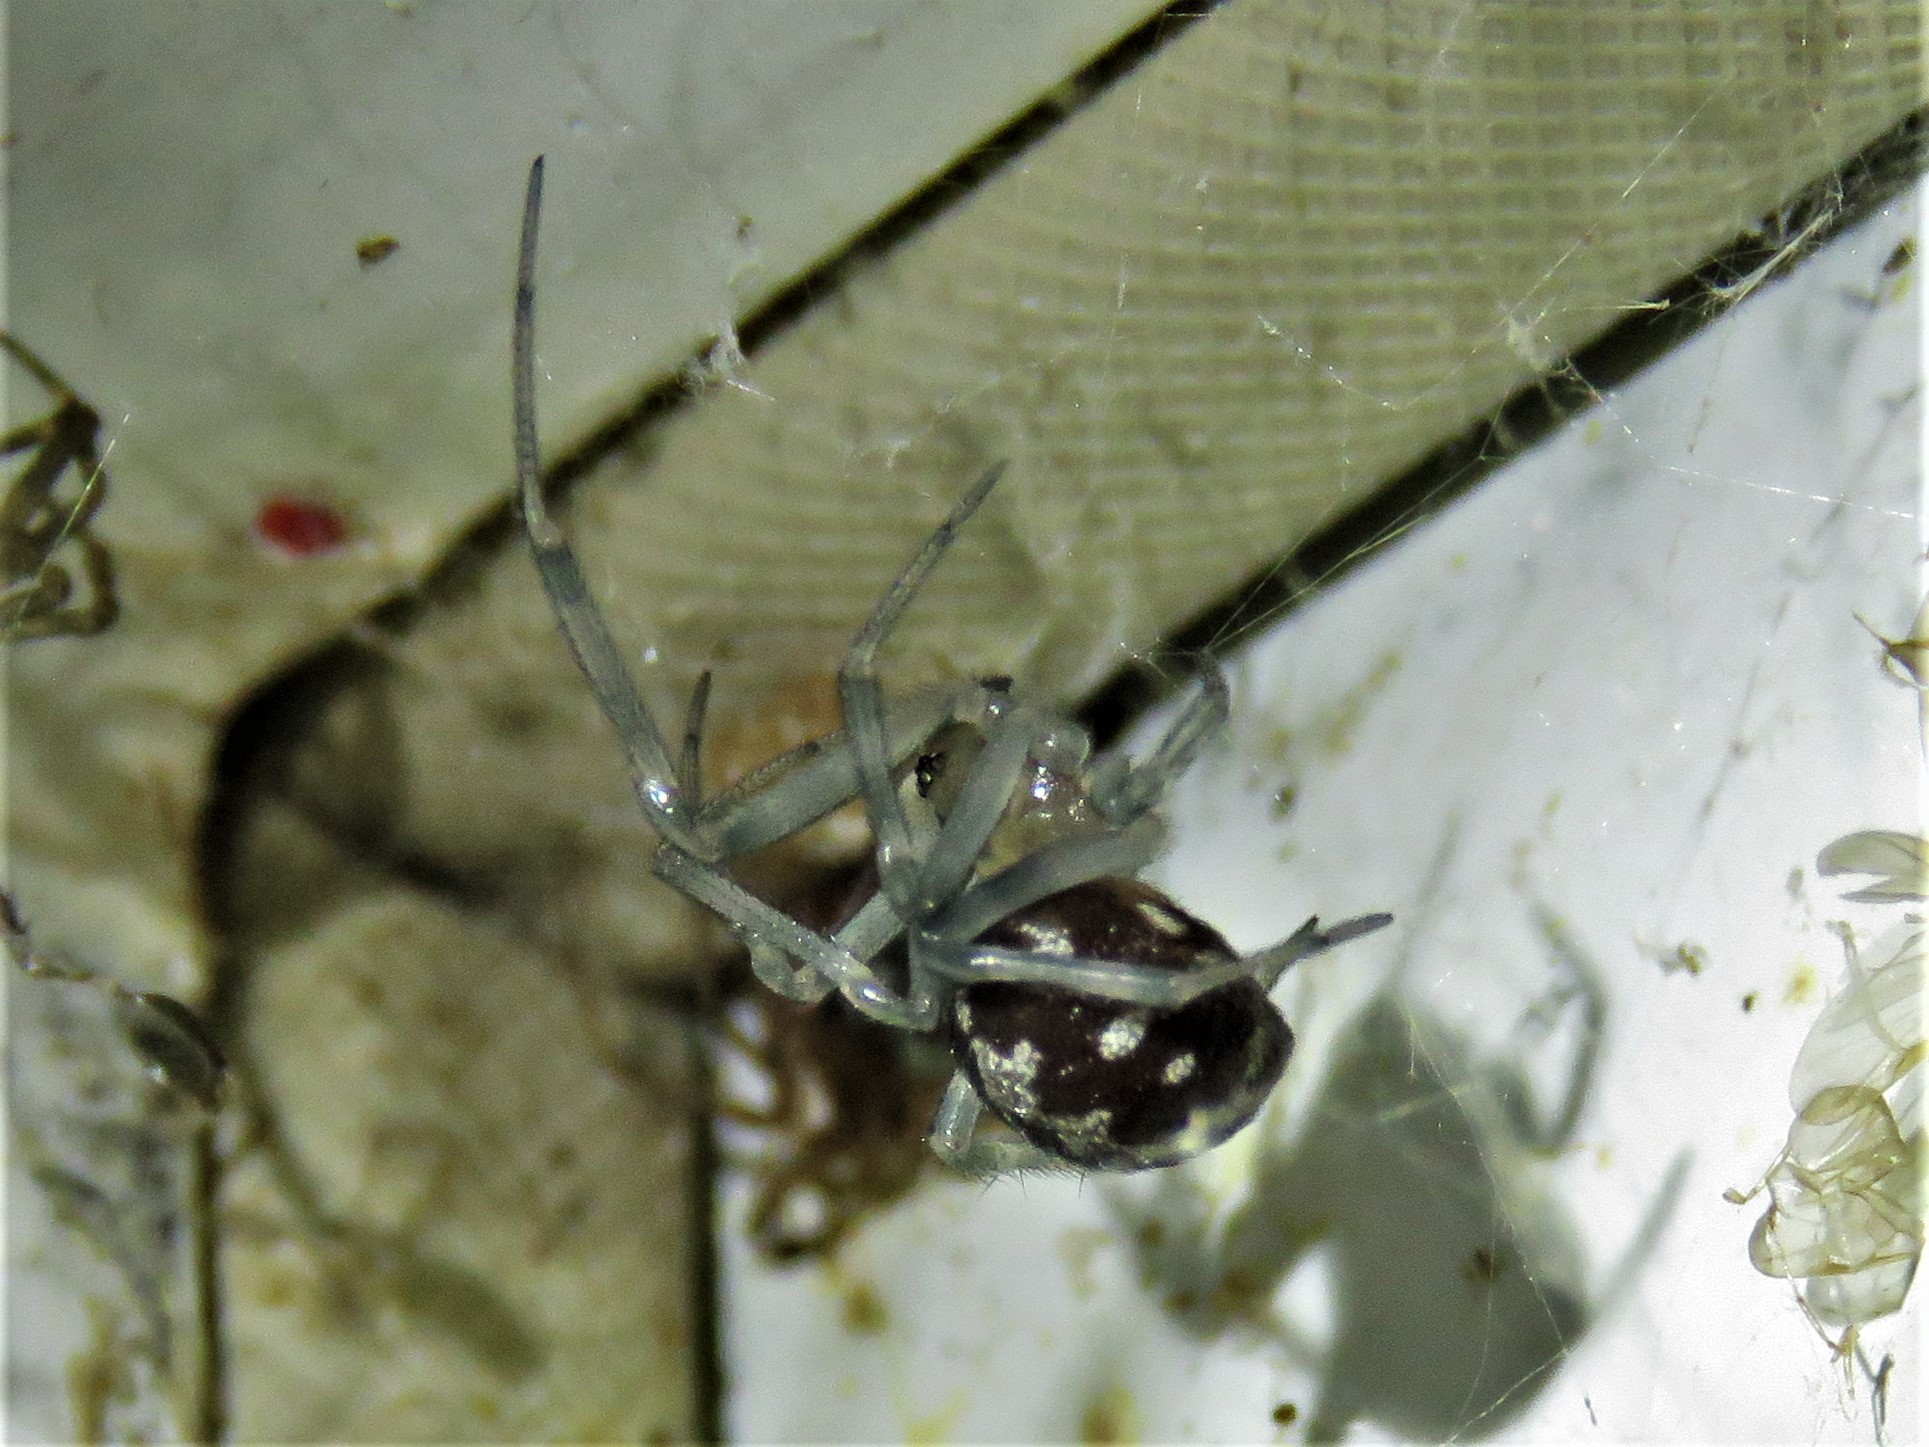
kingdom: Animalia
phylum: Arthropoda
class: Arachnida
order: Araneae
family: Theridiidae
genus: Steatoda
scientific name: Steatoda triangulosa
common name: Triangulate bud spider
